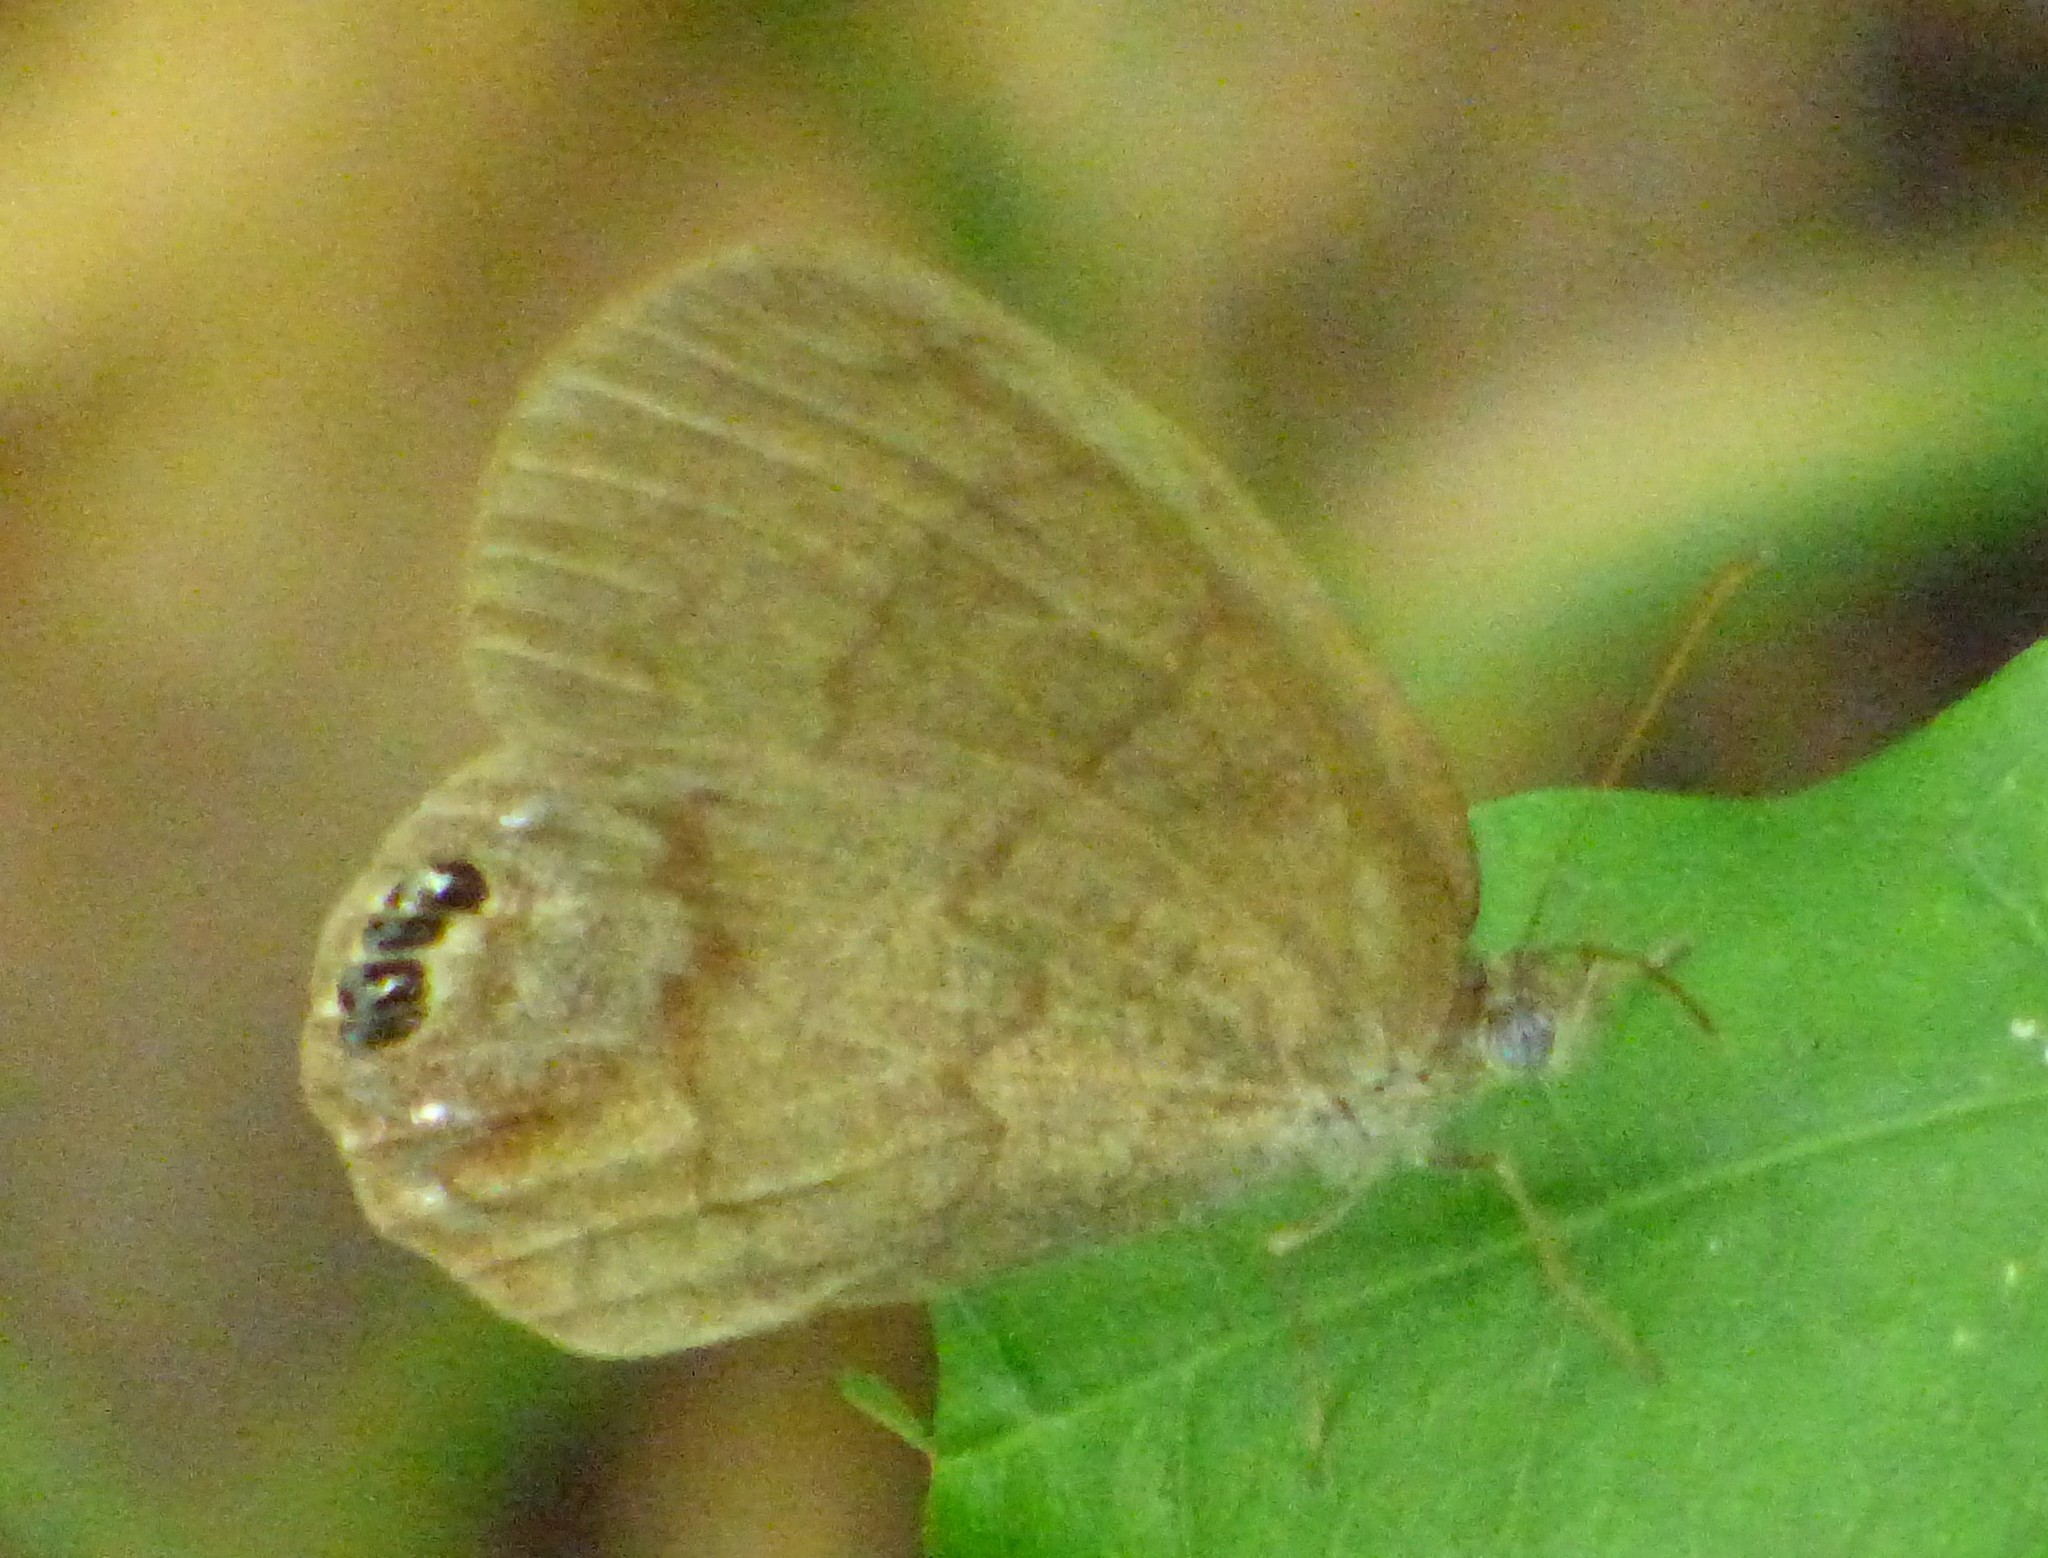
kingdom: Animalia
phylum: Arthropoda
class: Insecta
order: Lepidoptera
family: Nymphalidae
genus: Euptychia
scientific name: Euptychia cornelius
